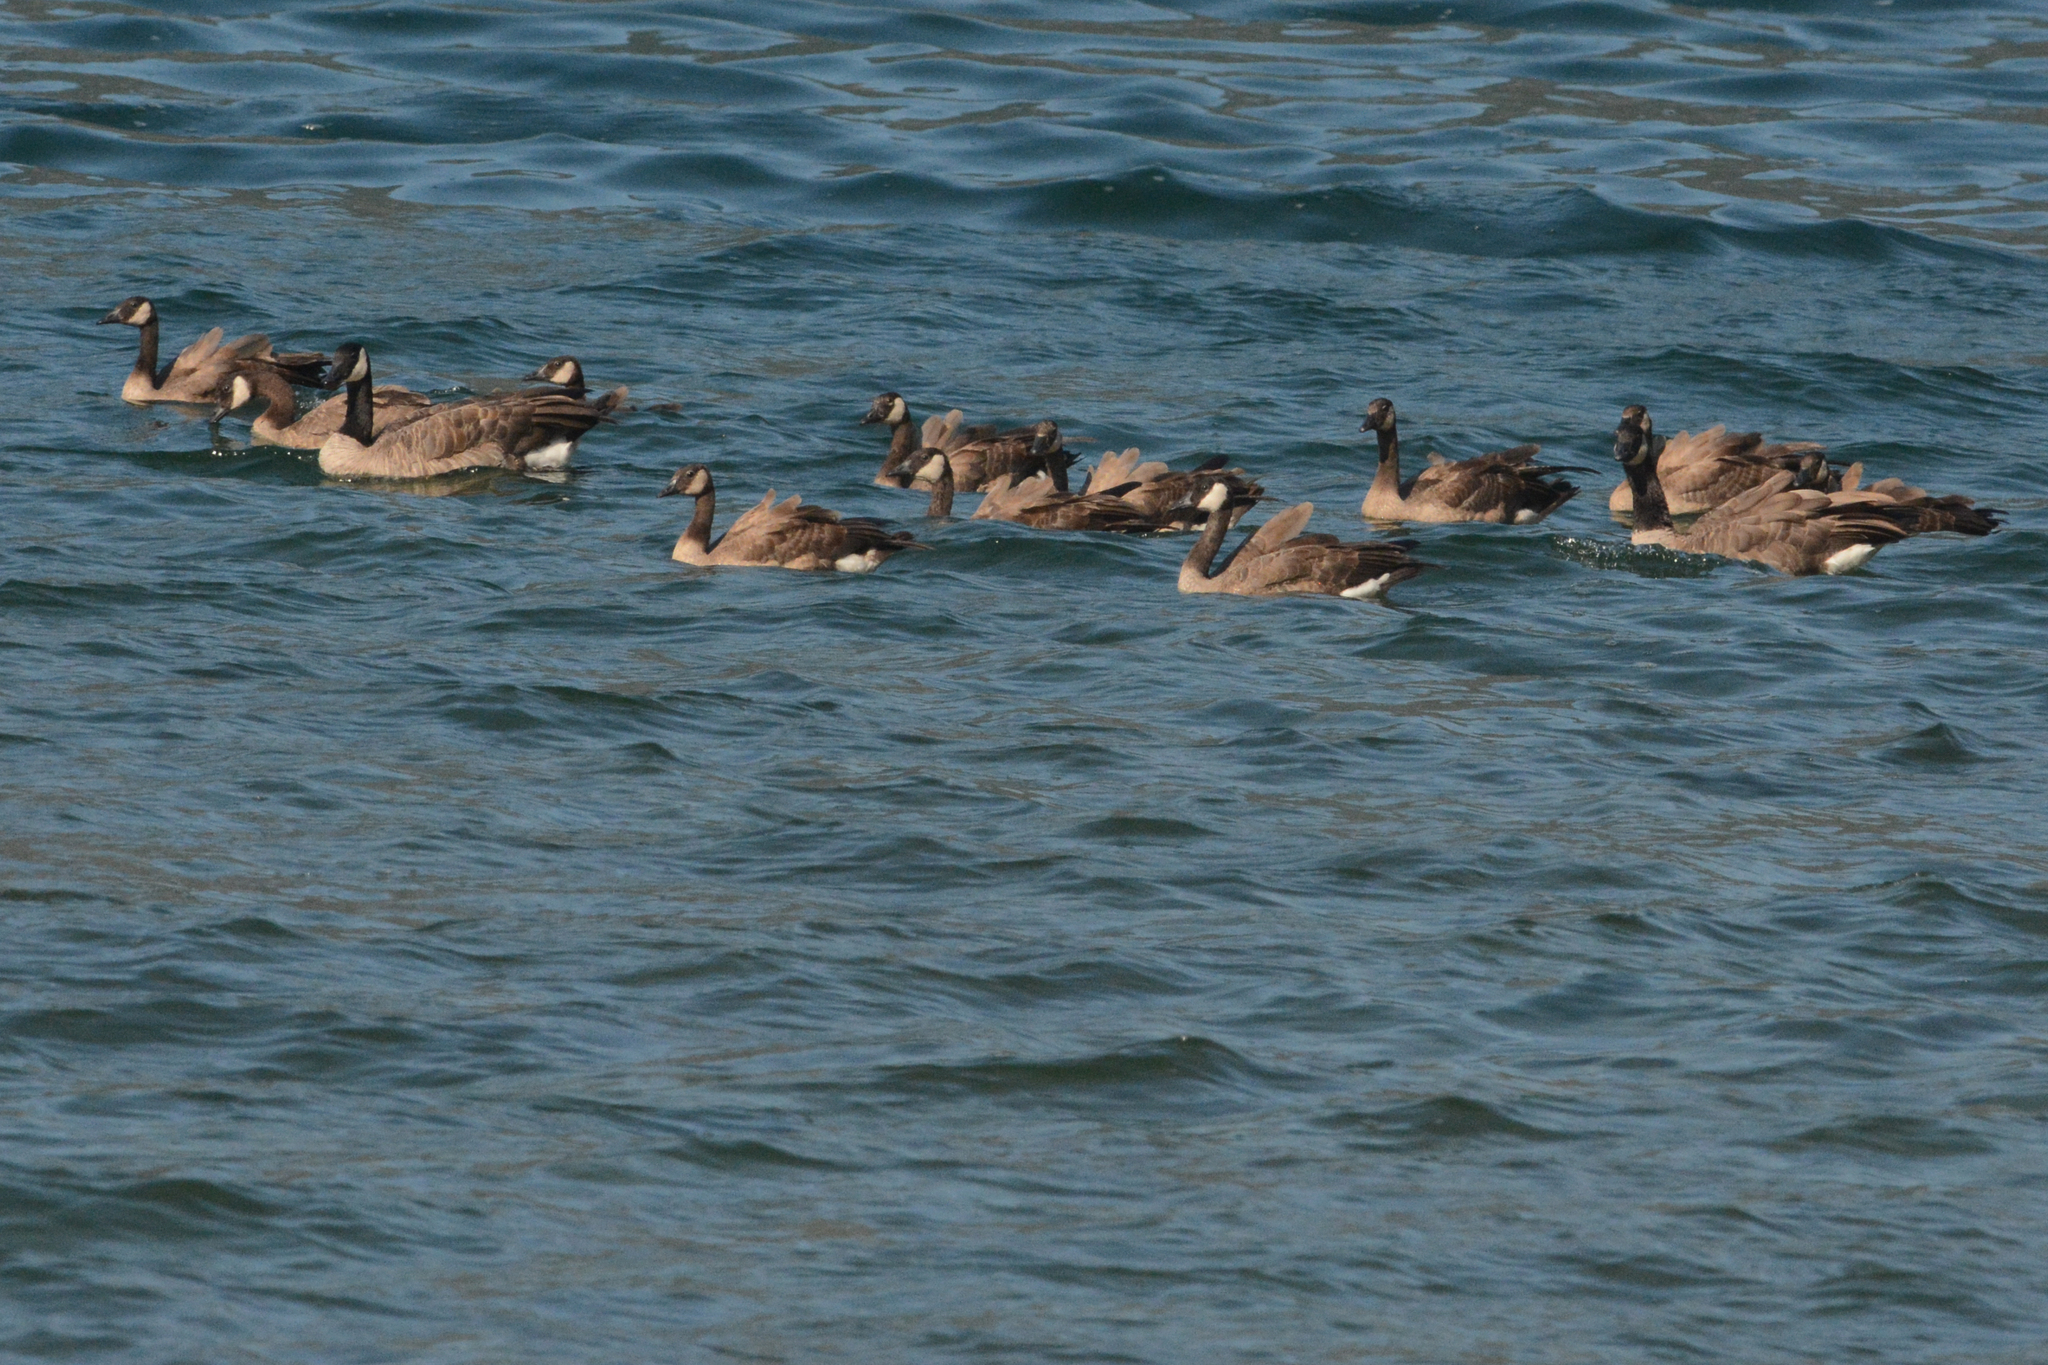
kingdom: Animalia
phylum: Chordata
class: Aves
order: Anseriformes
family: Anatidae
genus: Branta
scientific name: Branta canadensis
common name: Canada goose
